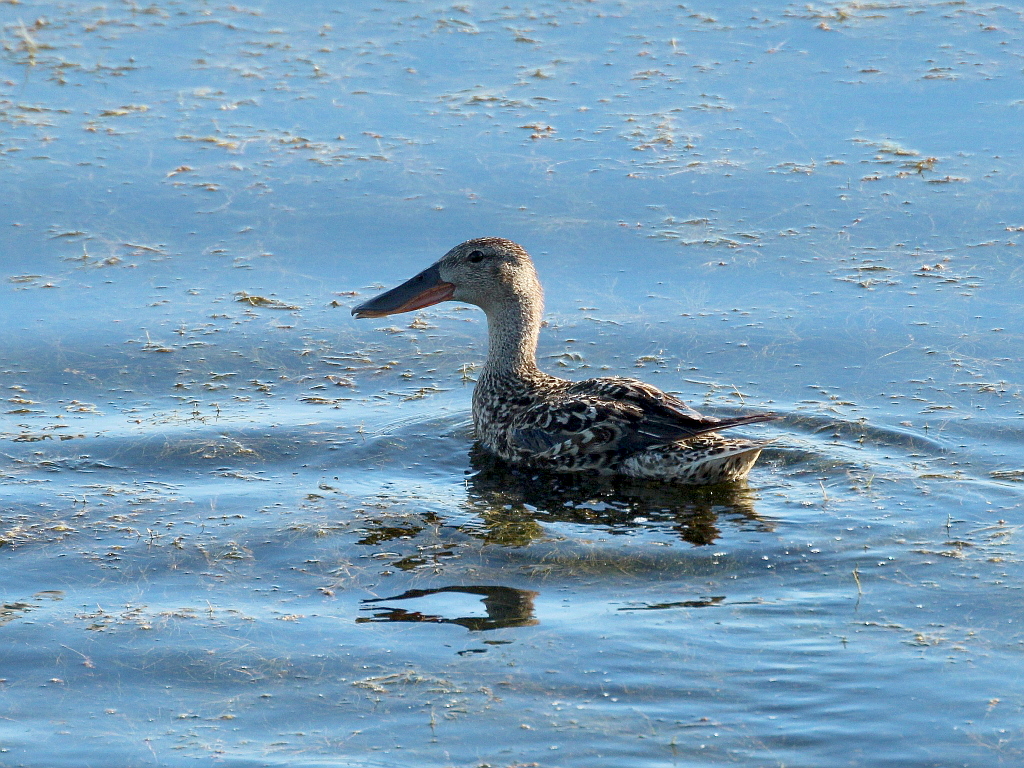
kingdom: Animalia
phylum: Chordata
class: Aves
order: Anseriformes
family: Anatidae
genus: Spatula
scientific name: Spatula clypeata
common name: Northern shoveler
